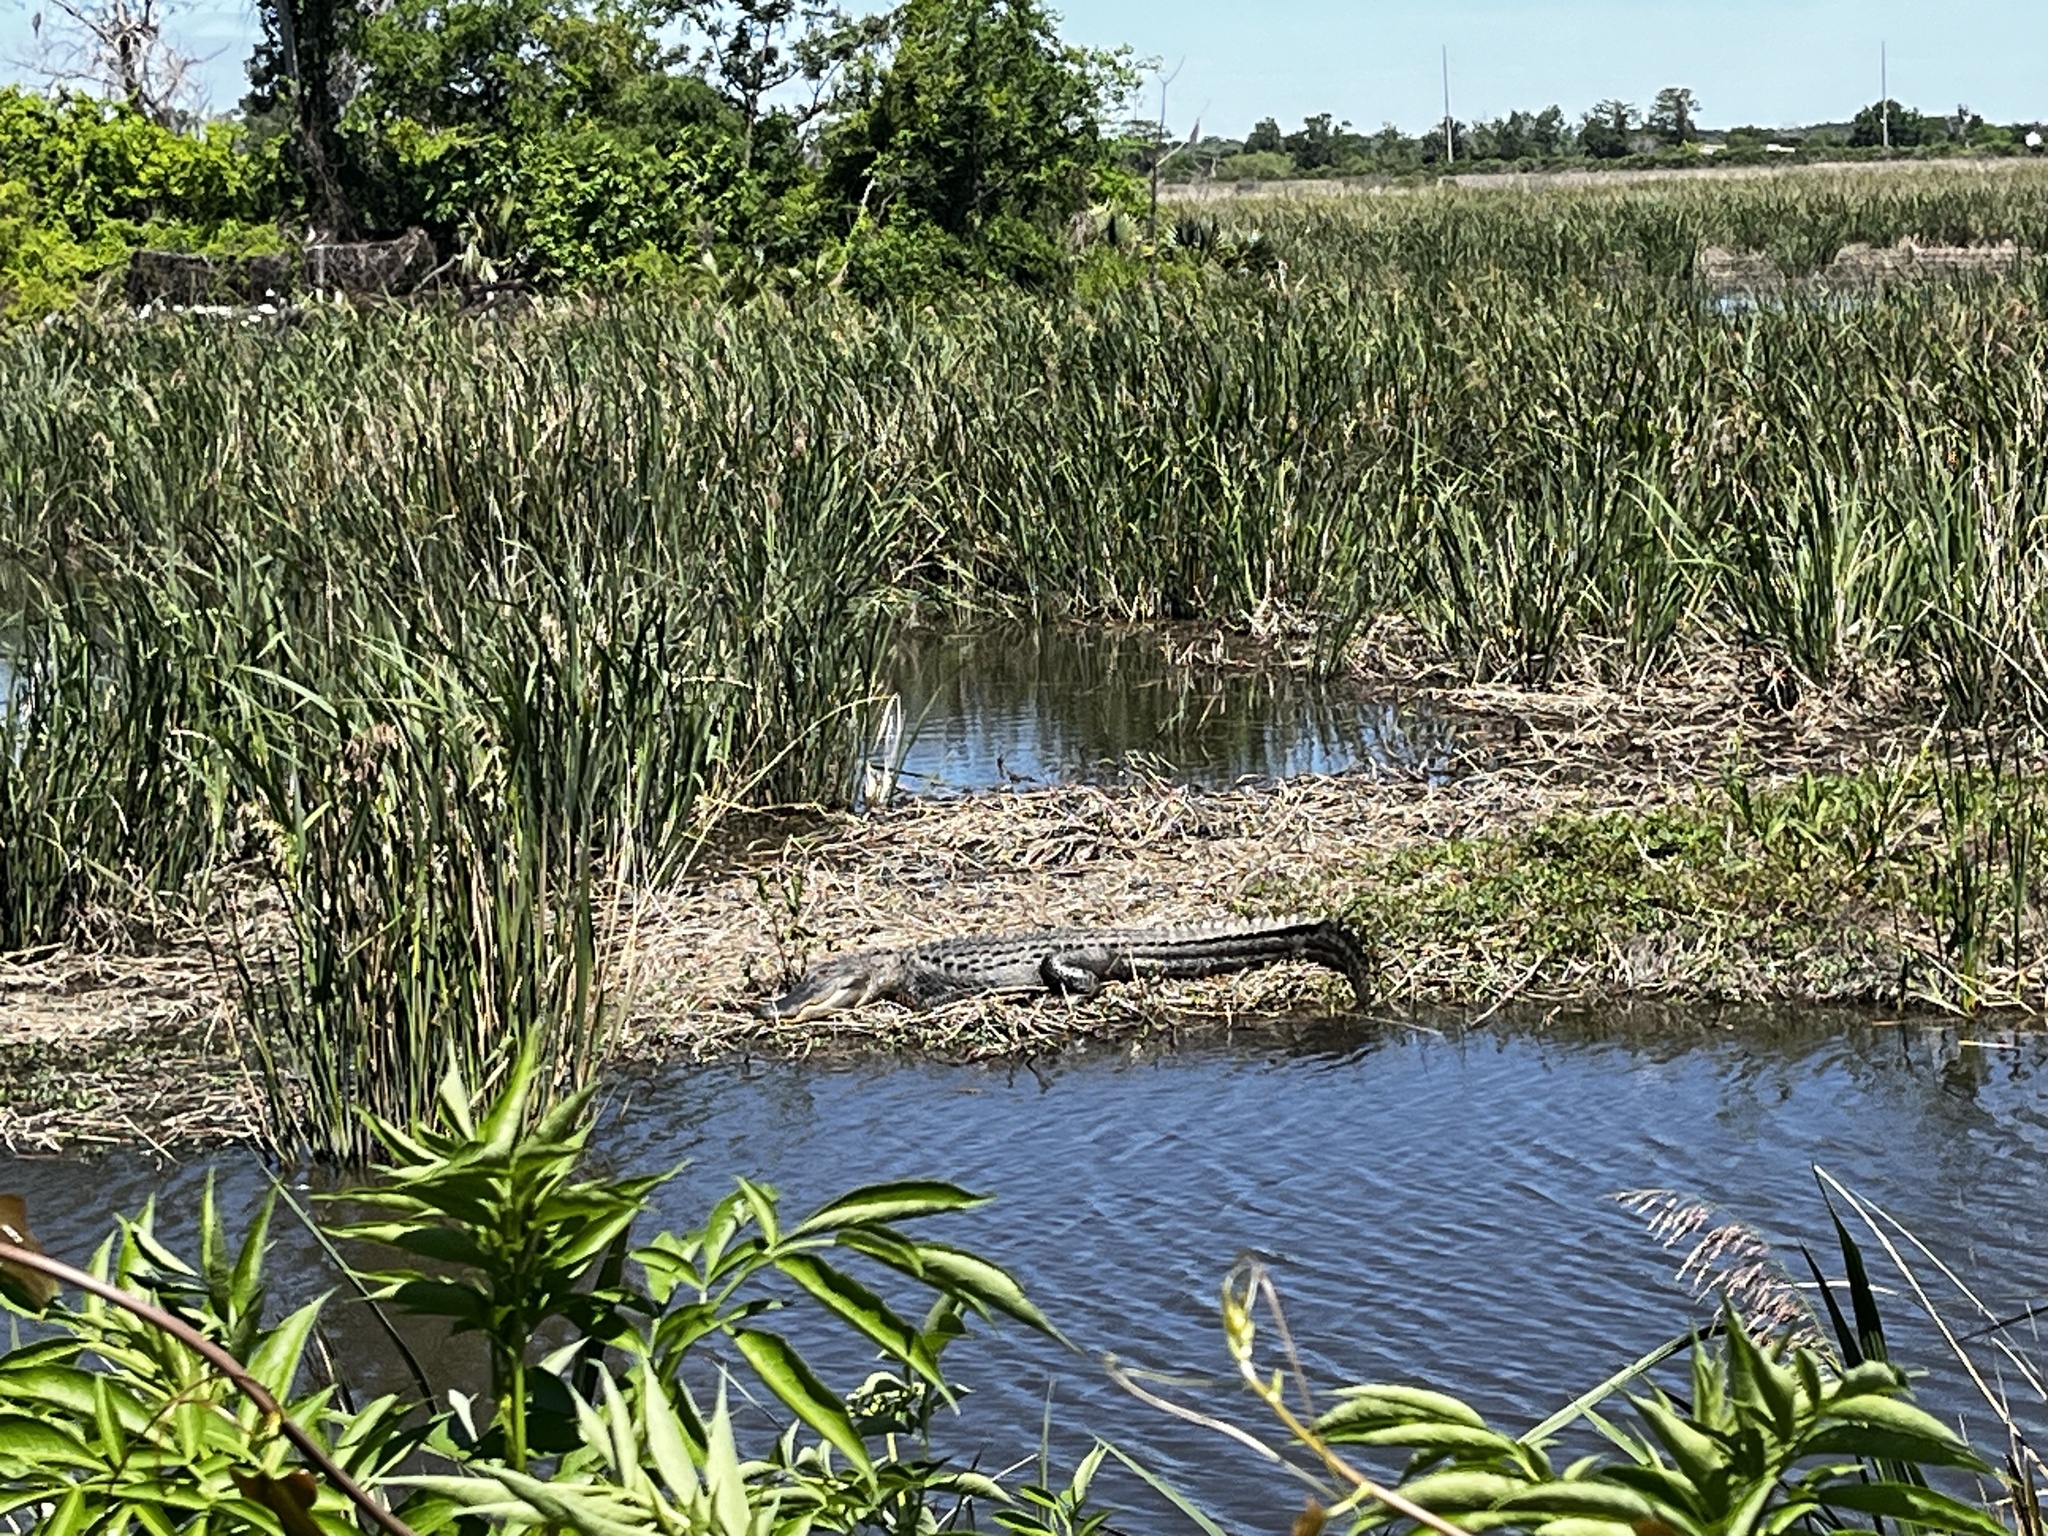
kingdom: Animalia
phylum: Chordata
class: Crocodylia
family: Alligatoridae
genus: Alligator
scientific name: Alligator mississippiensis
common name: American alligator
